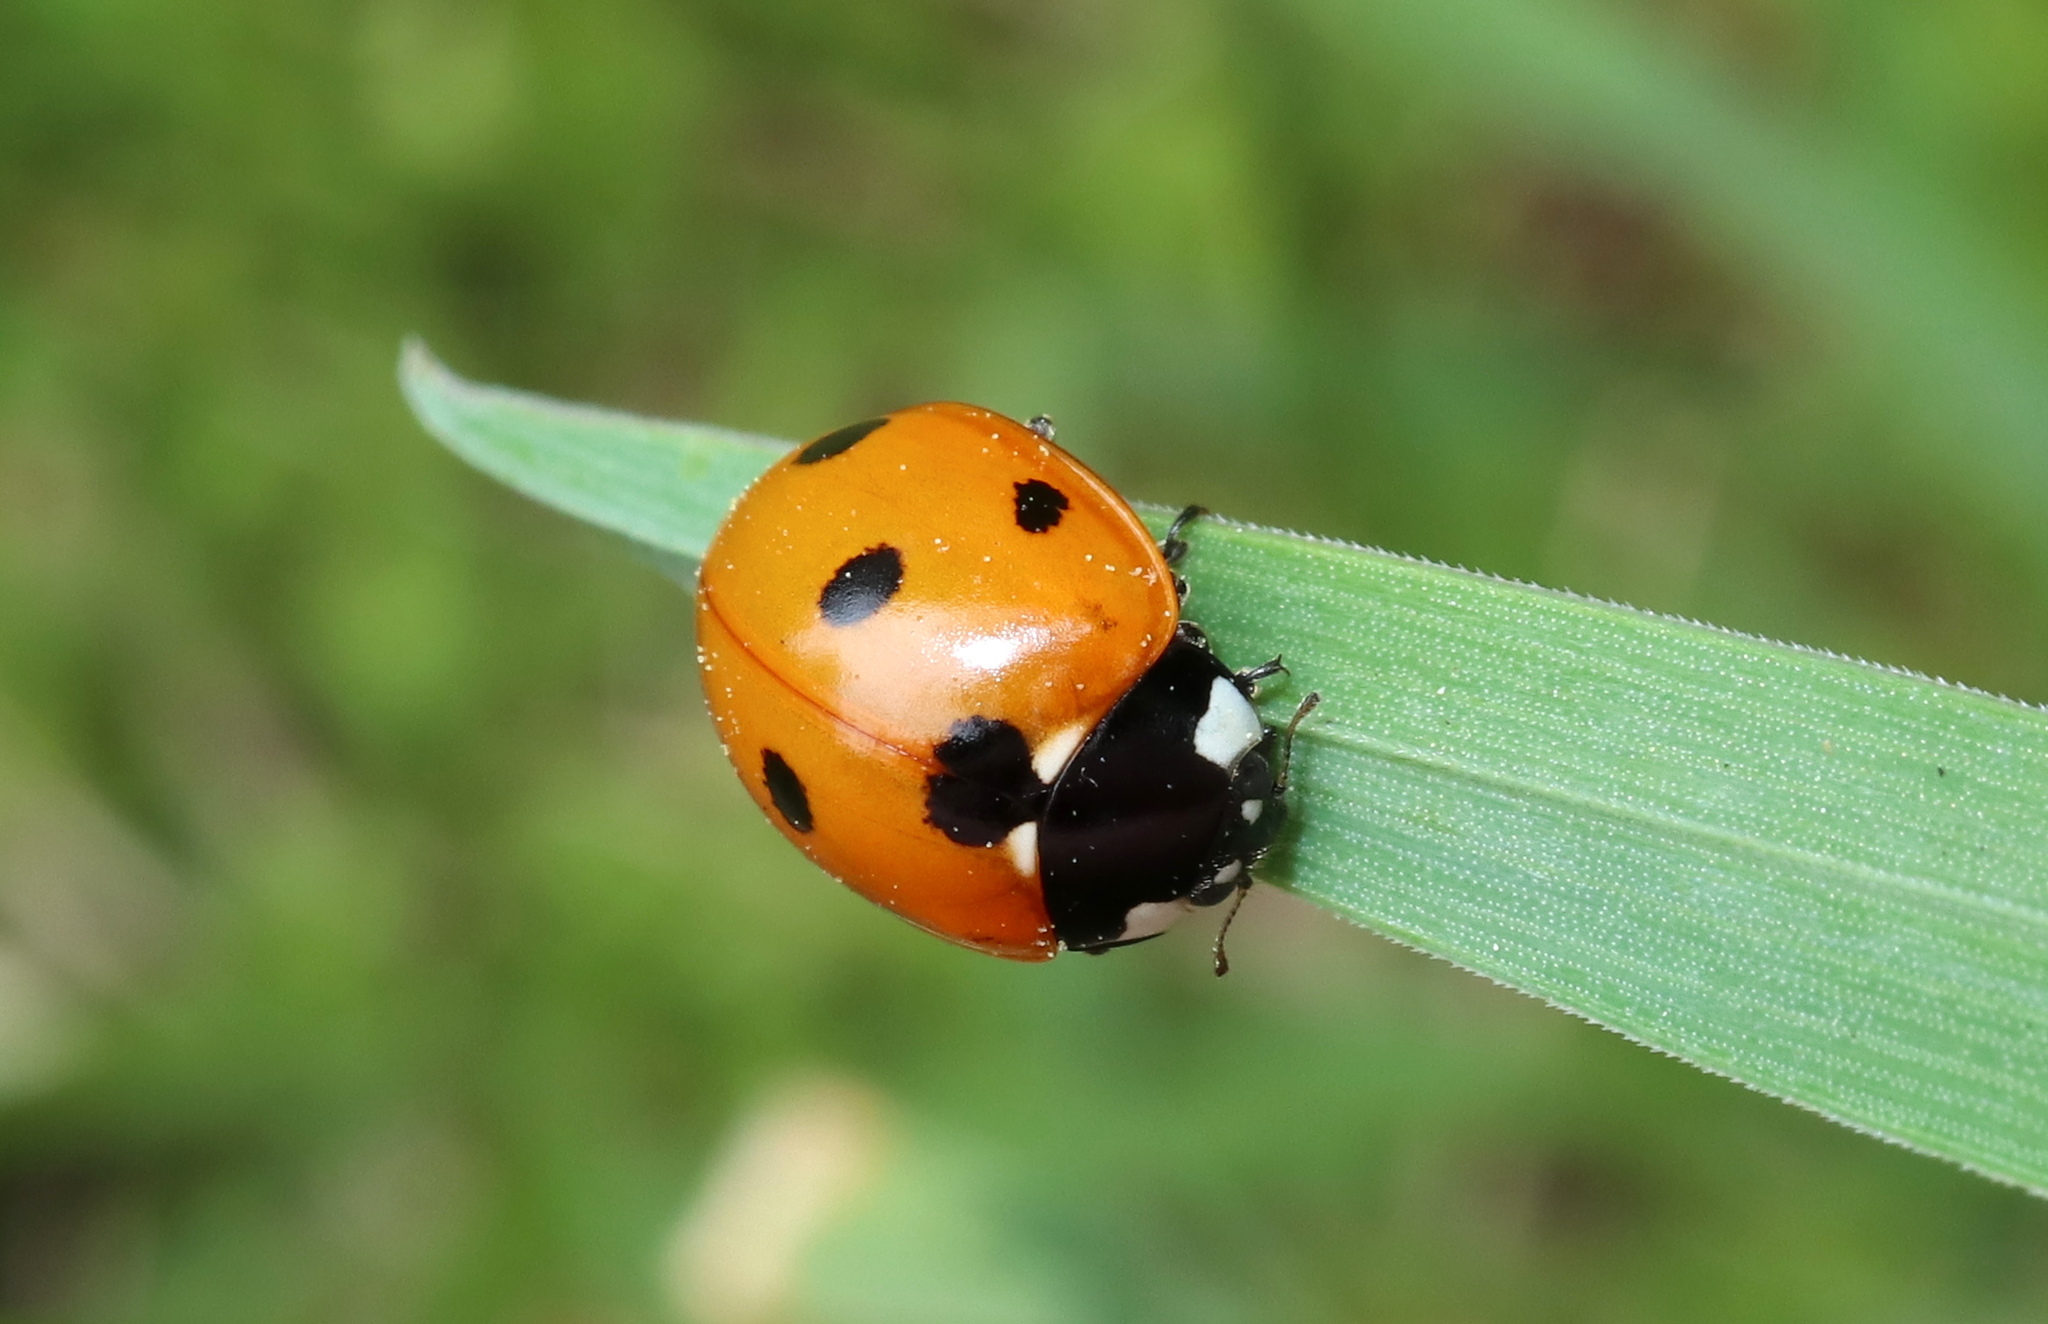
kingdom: Animalia
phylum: Arthropoda
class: Insecta
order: Coleoptera
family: Coccinellidae
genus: Coccinella
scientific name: Coccinella septempunctata
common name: Sevenspotted lady beetle
